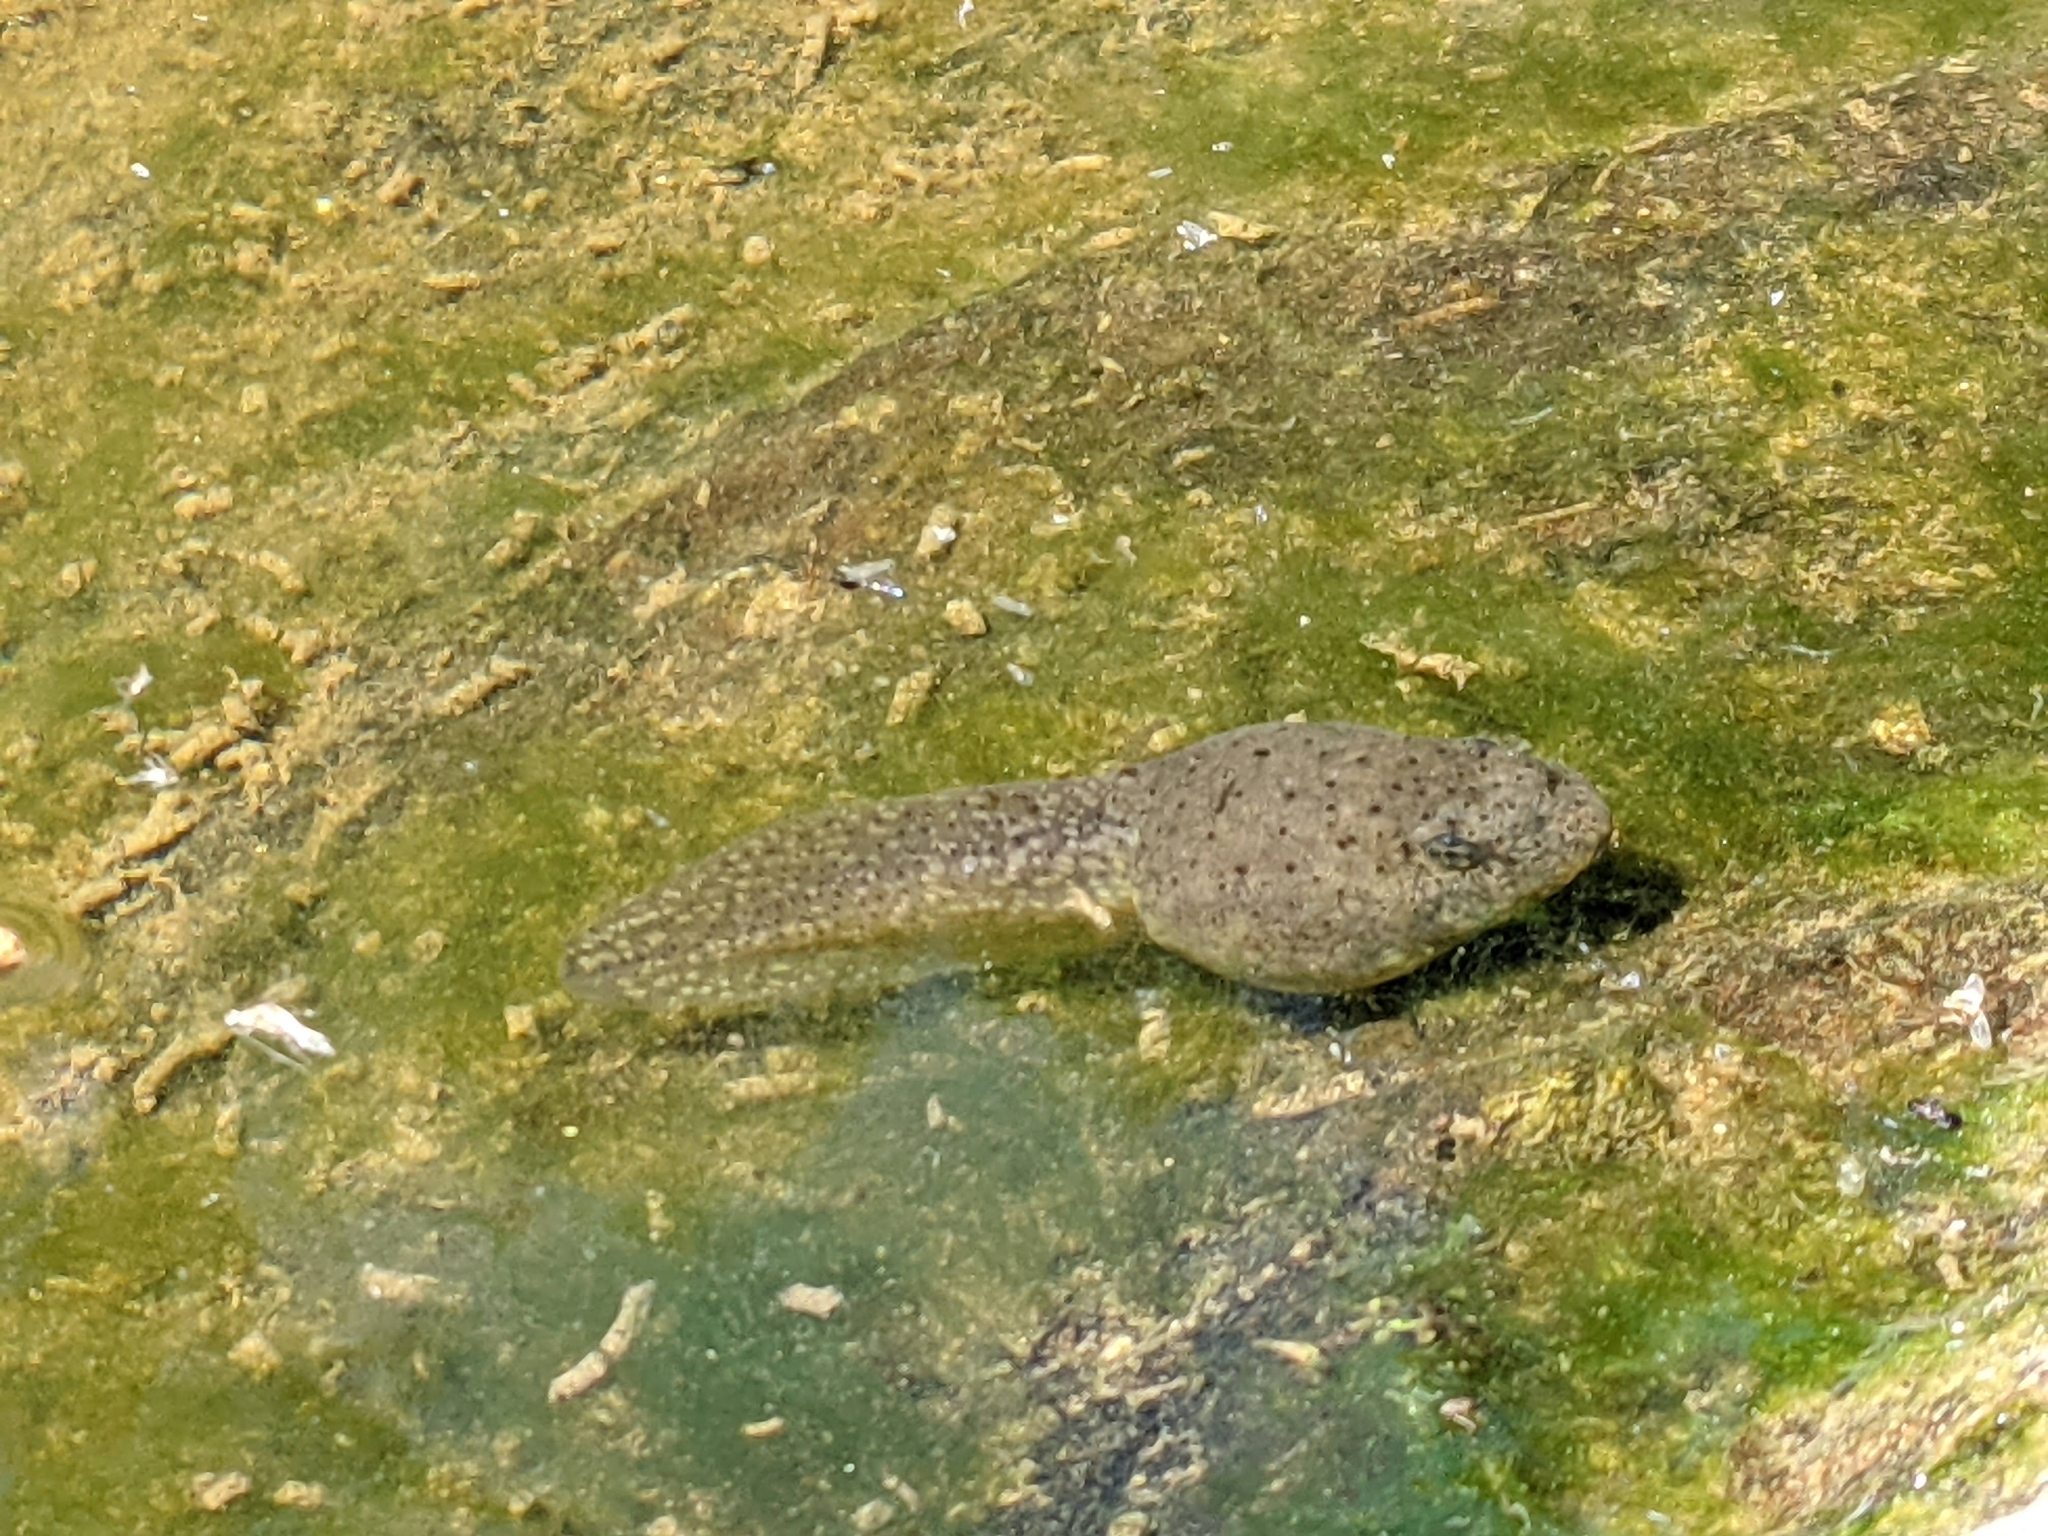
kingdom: Animalia
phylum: Chordata
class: Amphibia
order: Anura
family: Ranidae
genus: Lithobates
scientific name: Lithobates catesbeianus
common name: American bullfrog
